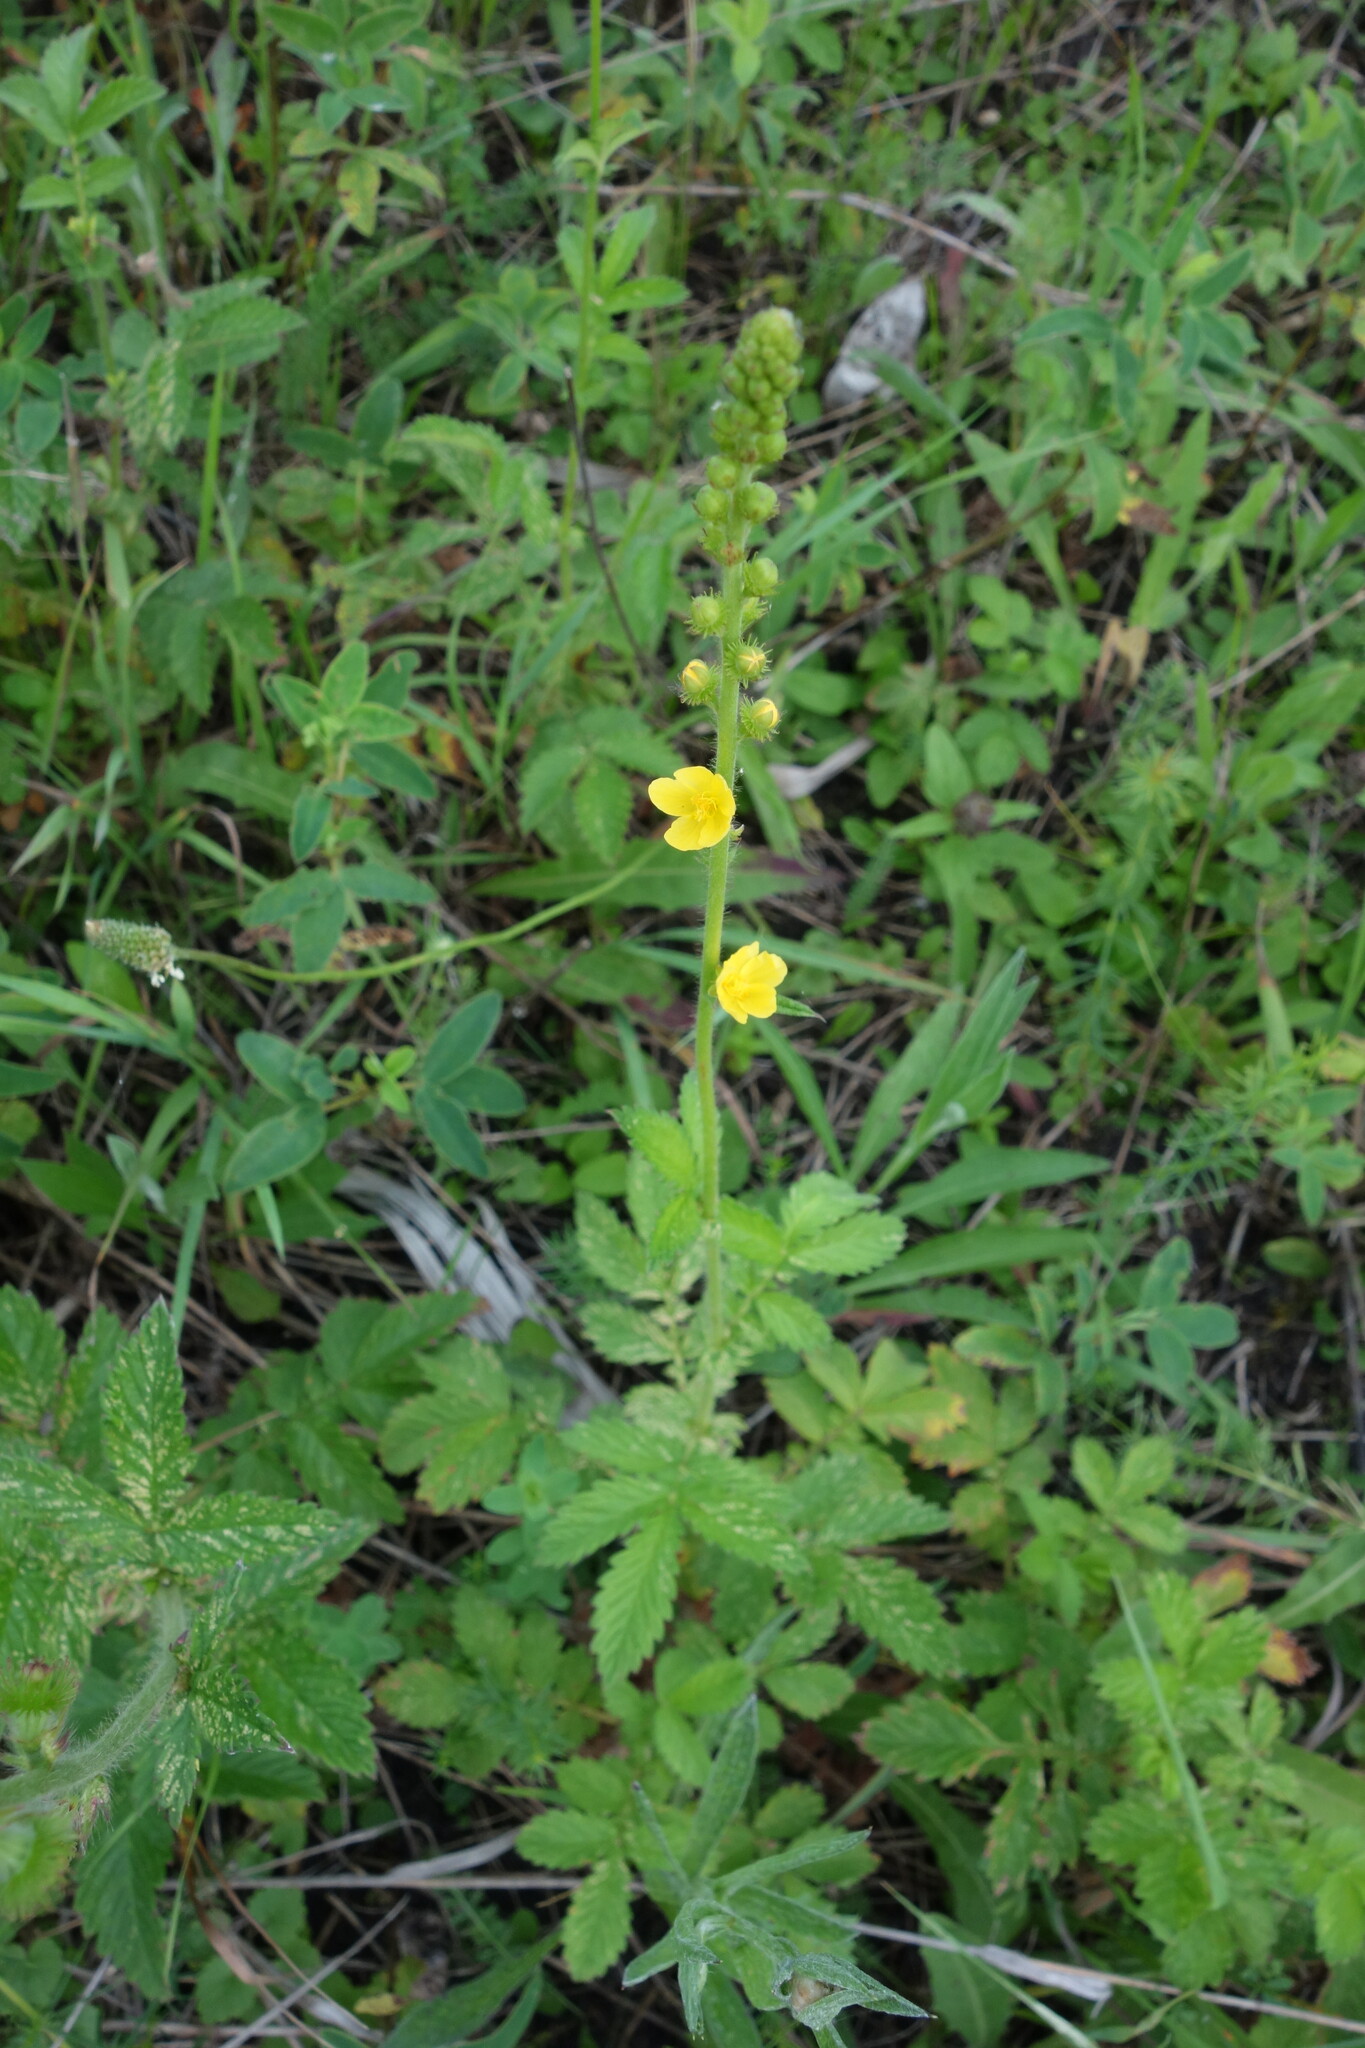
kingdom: Plantae
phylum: Tracheophyta
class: Magnoliopsida
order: Rosales
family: Rosaceae
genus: Agrimonia
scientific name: Agrimonia eupatoria
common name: Agrimony
